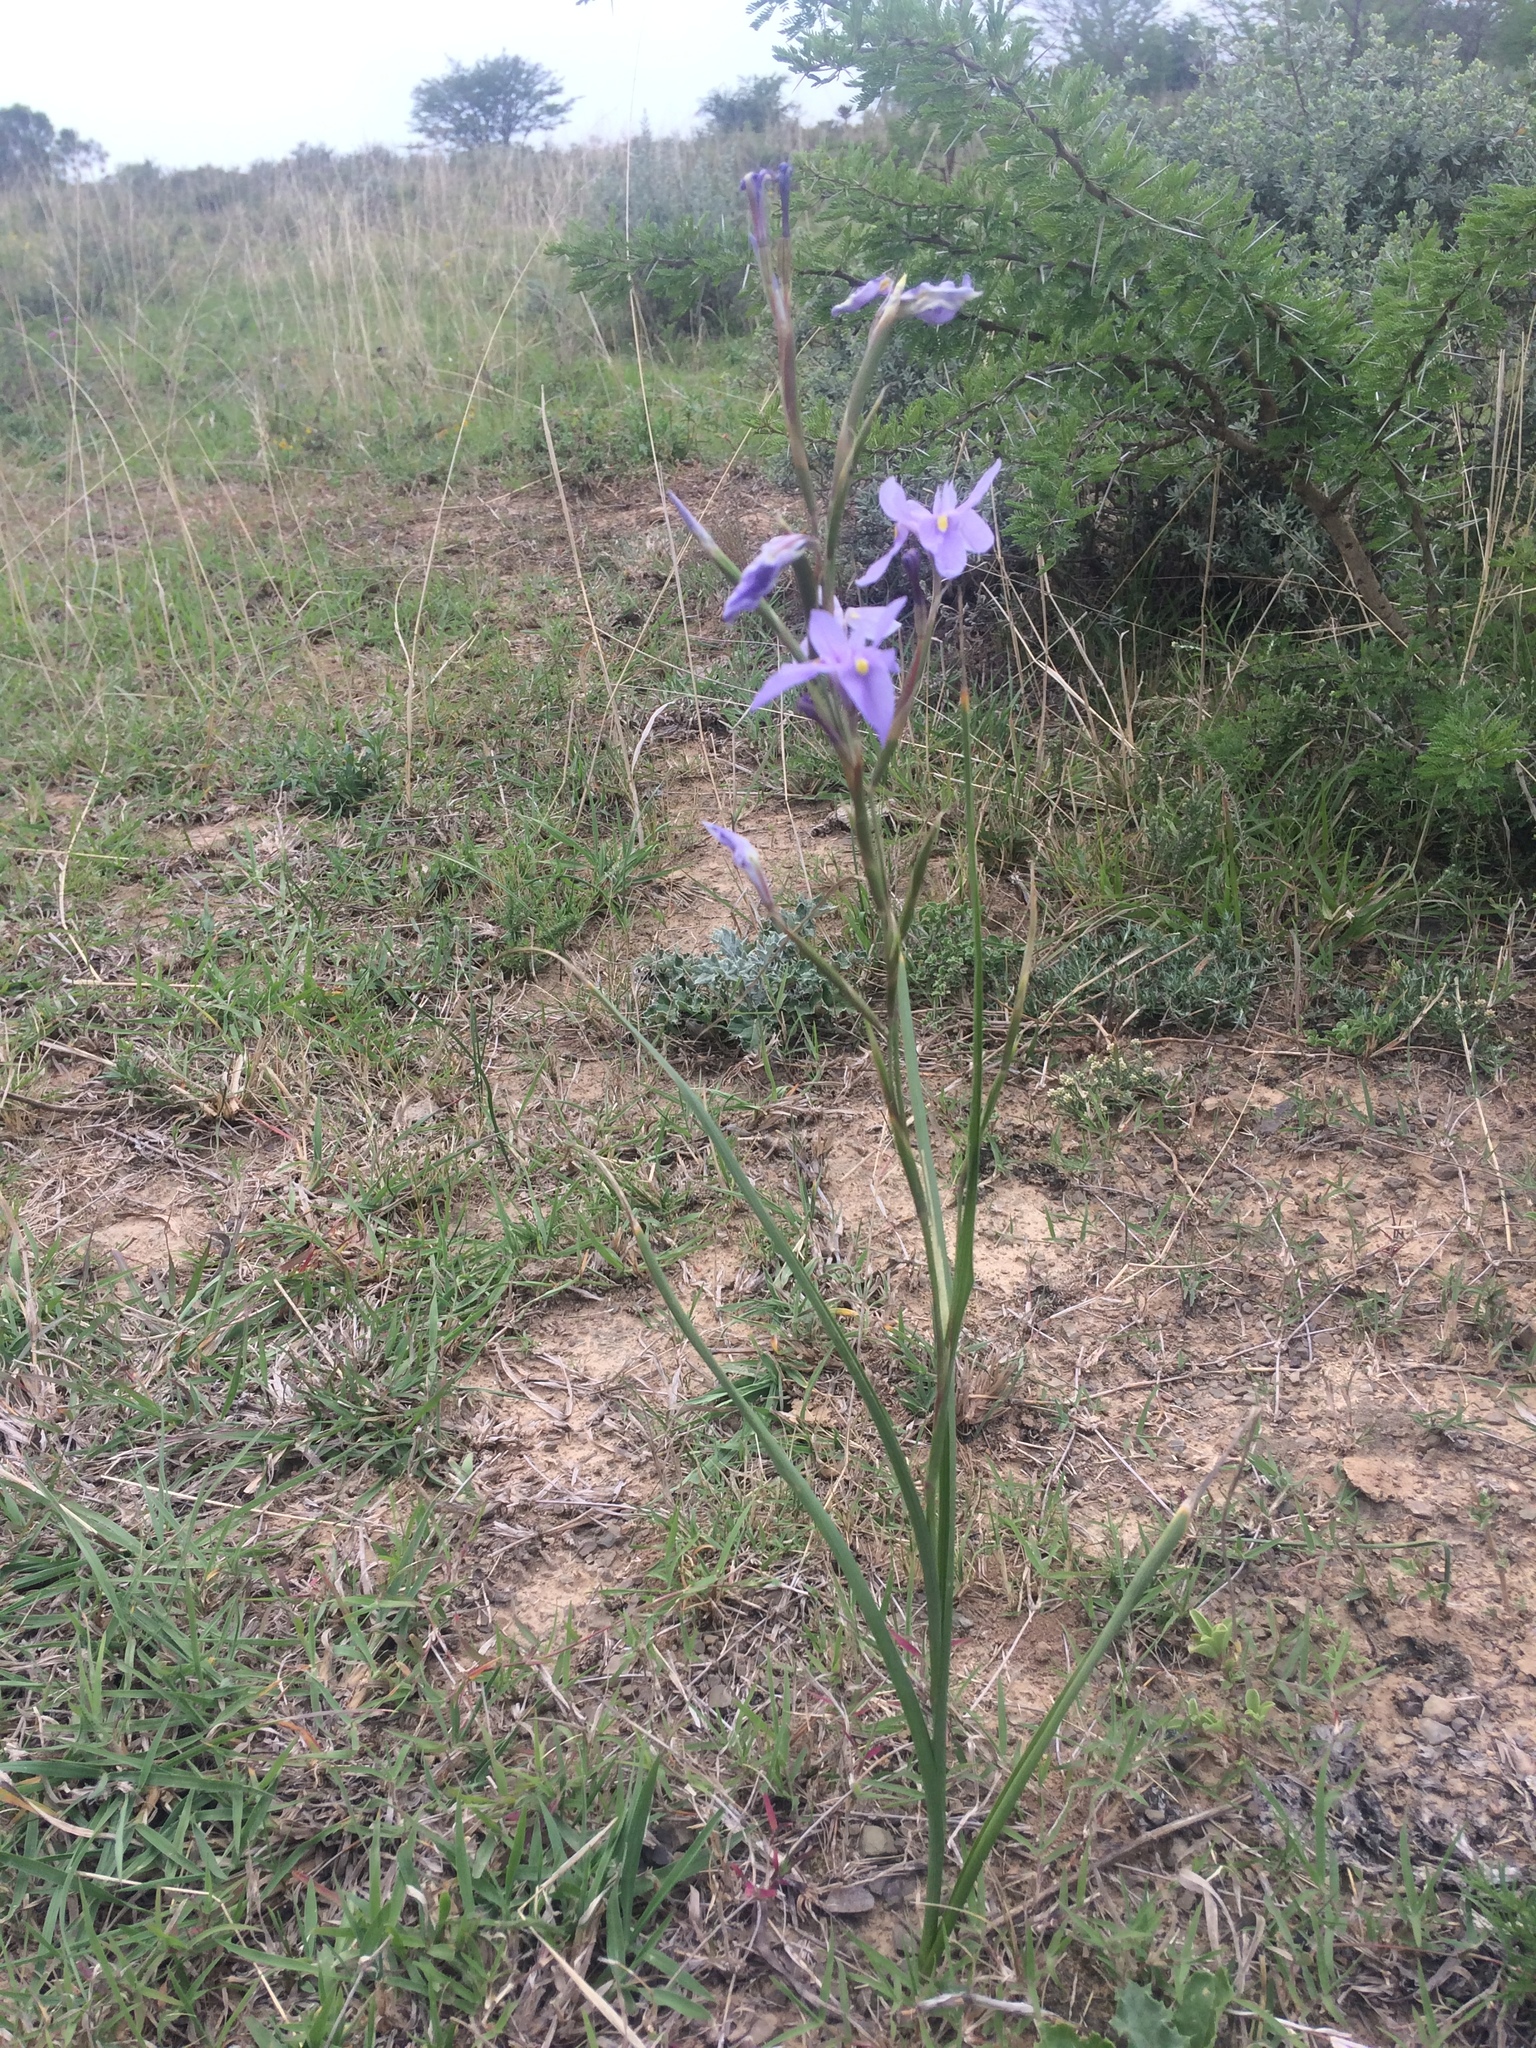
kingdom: Plantae
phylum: Tracheophyta
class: Liliopsida
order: Asparagales
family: Iridaceae
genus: Moraea
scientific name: Moraea polystachya
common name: Blue-tulip
